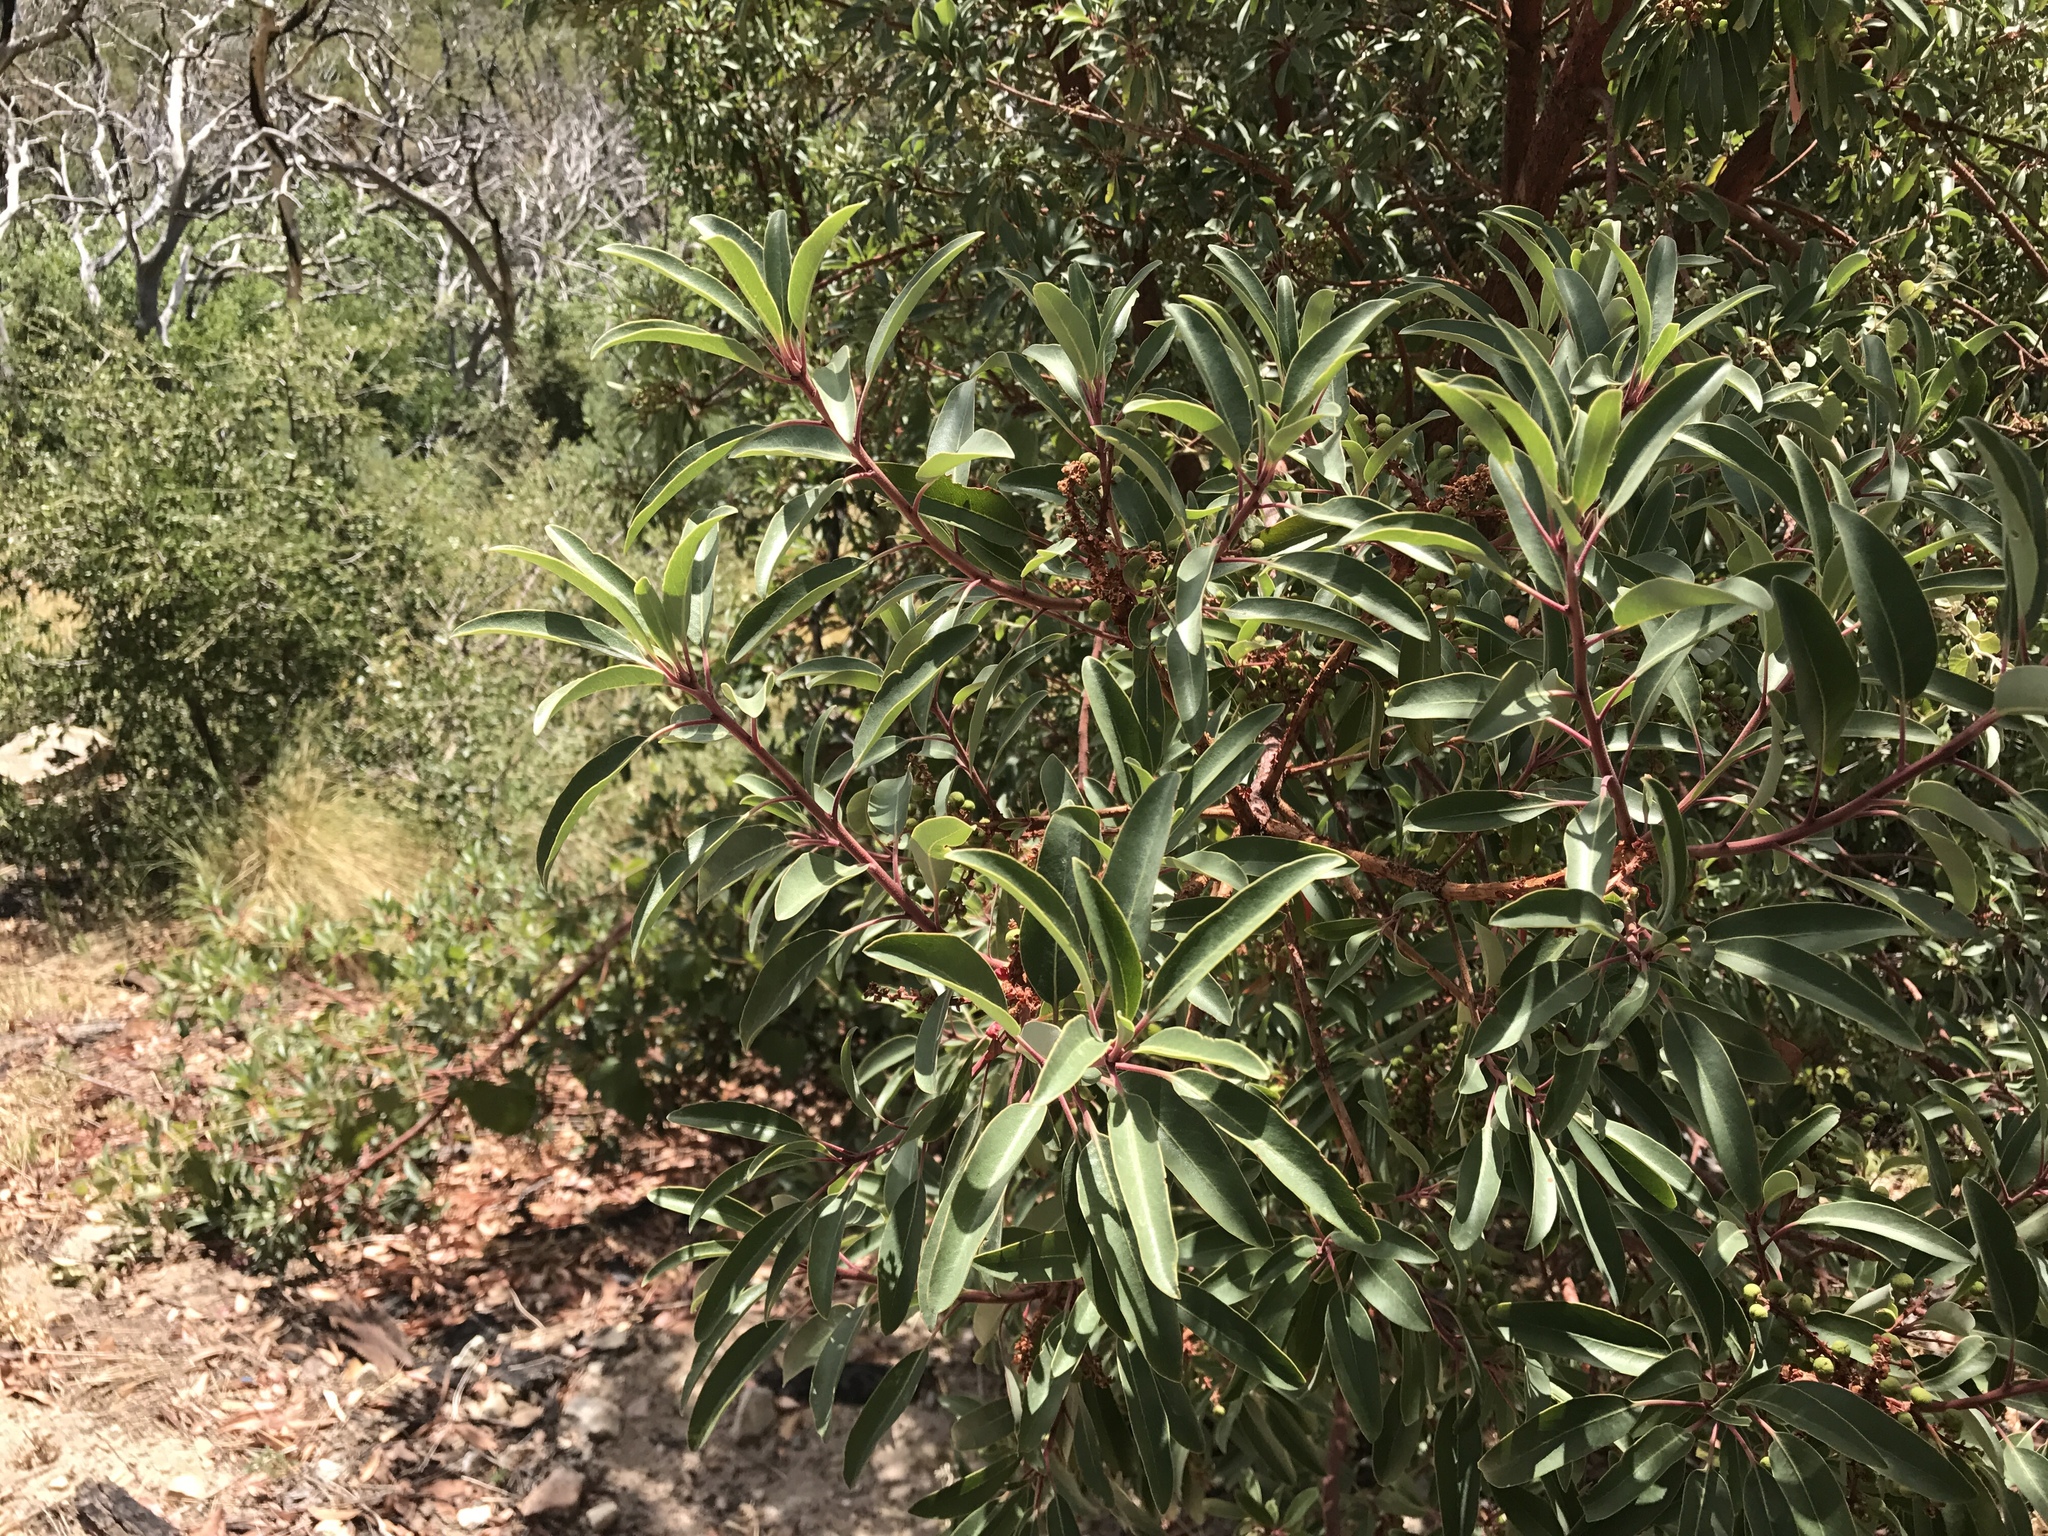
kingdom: Plantae
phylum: Tracheophyta
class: Magnoliopsida
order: Ericales
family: Ericaceae
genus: Arbutus
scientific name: Arbutus arizonica
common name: Arizona madrone
